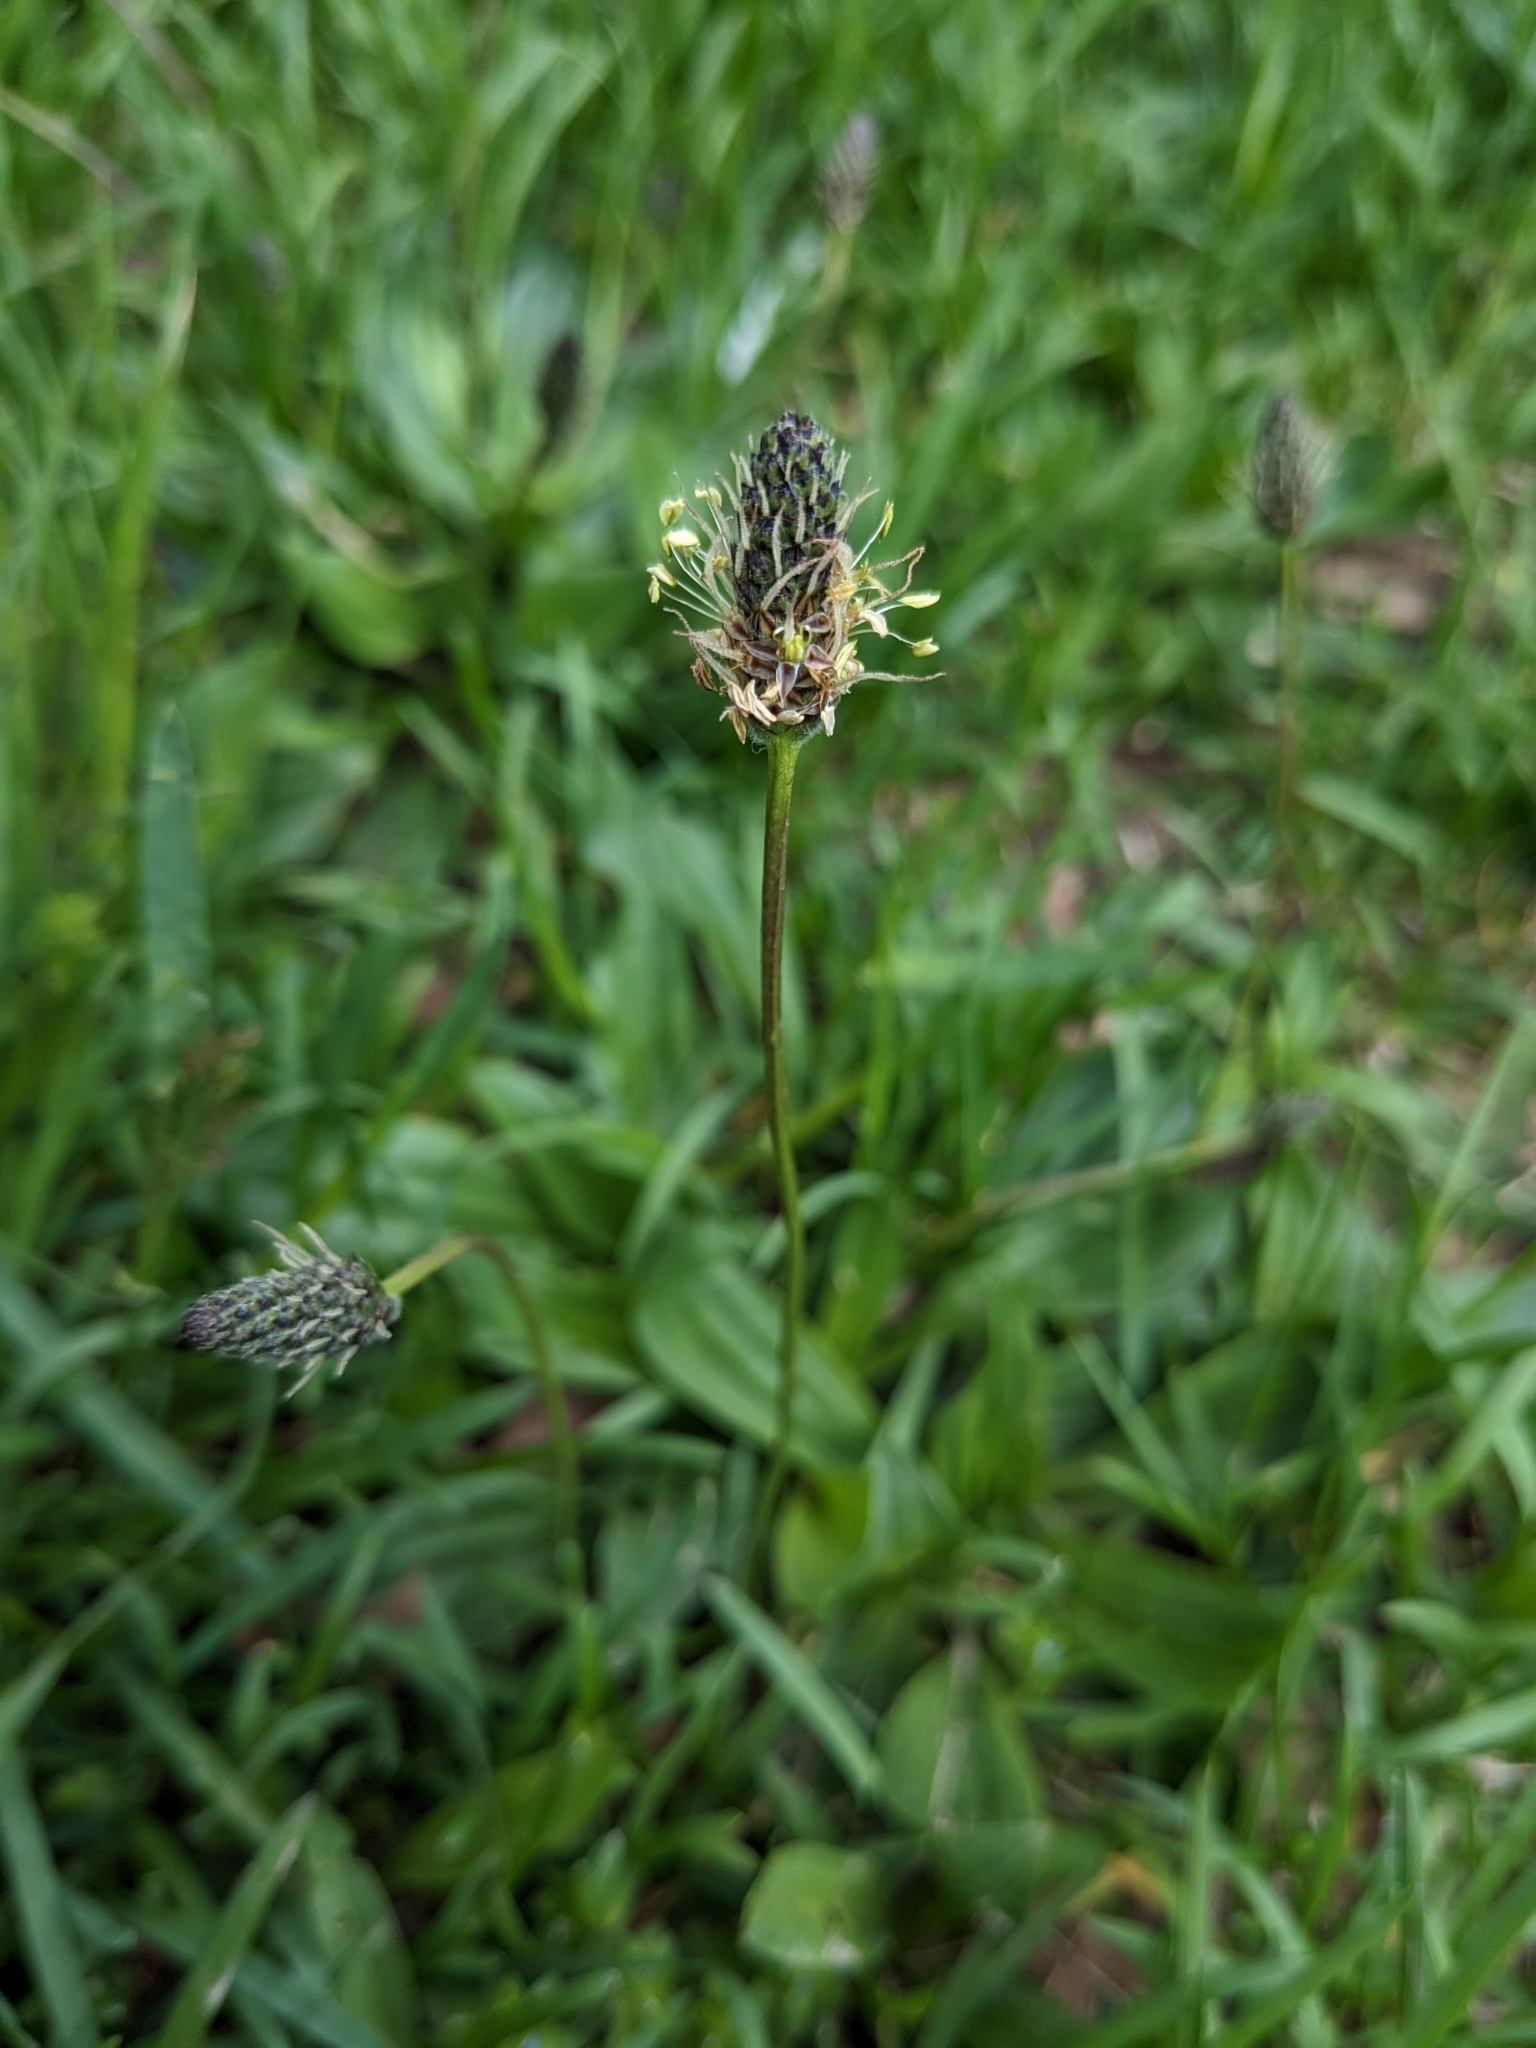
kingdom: Plantae
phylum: Tracheophyta
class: Magnoliopsida
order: Lamiales
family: Plantaginaceae
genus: Plantago
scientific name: Plantago lanceolata
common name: Ribwort plantain
